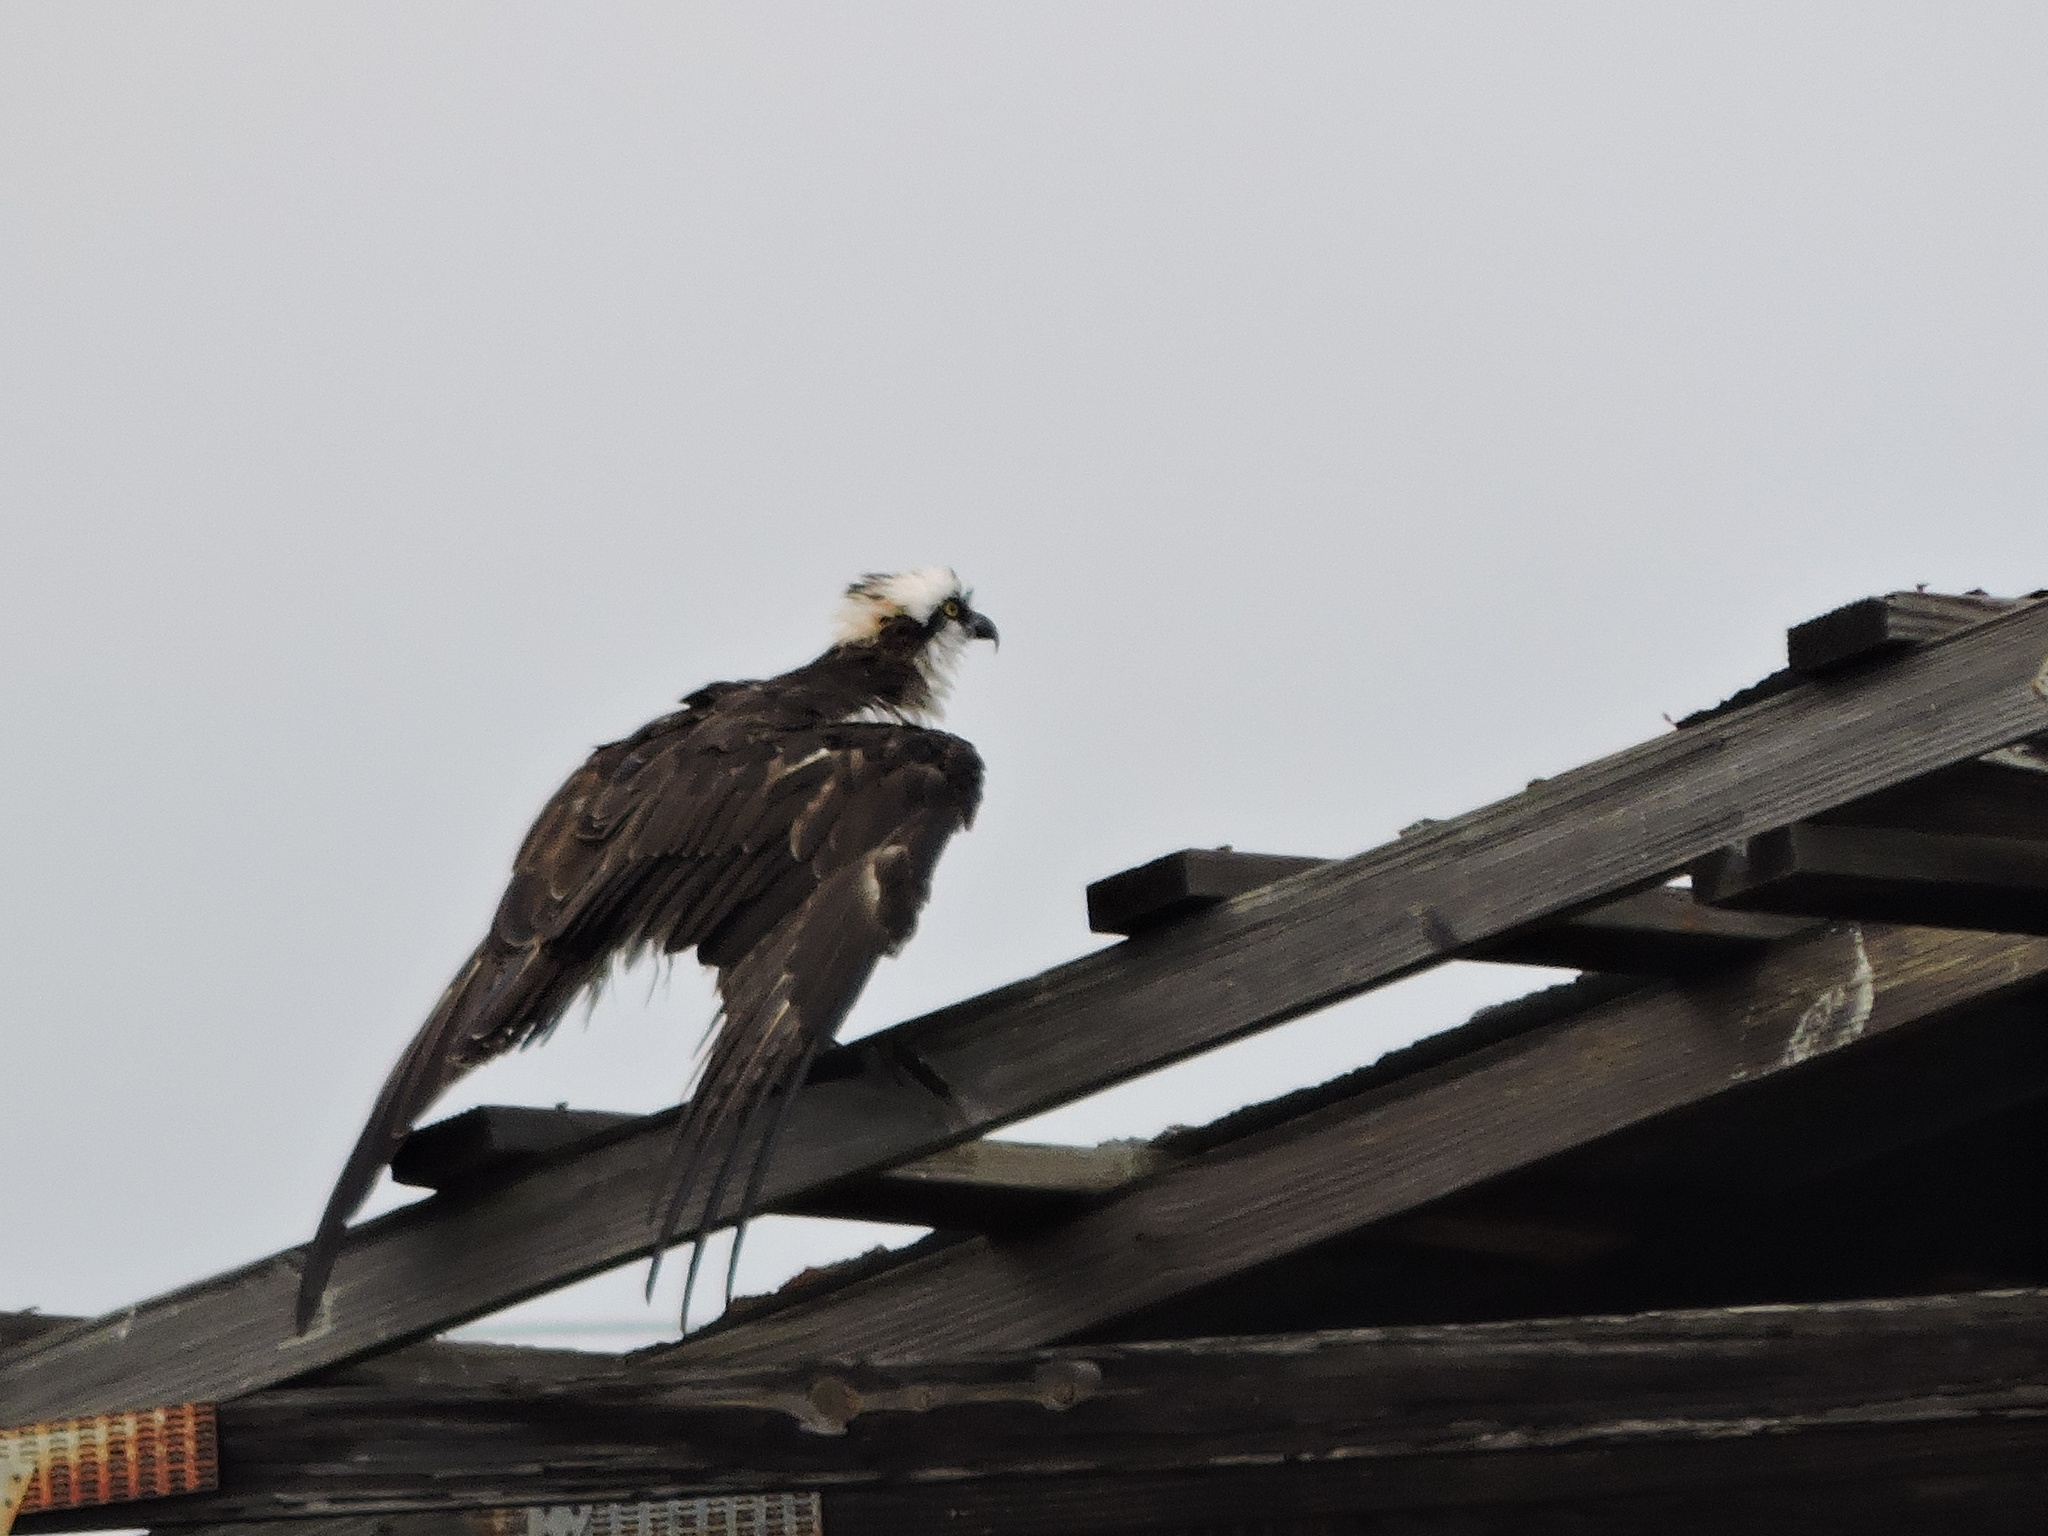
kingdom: Animalia
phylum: Chordata
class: Aves
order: Accipitriformes
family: Pandionidae
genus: Pandion
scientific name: Pandion haliaetus
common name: Osprey
